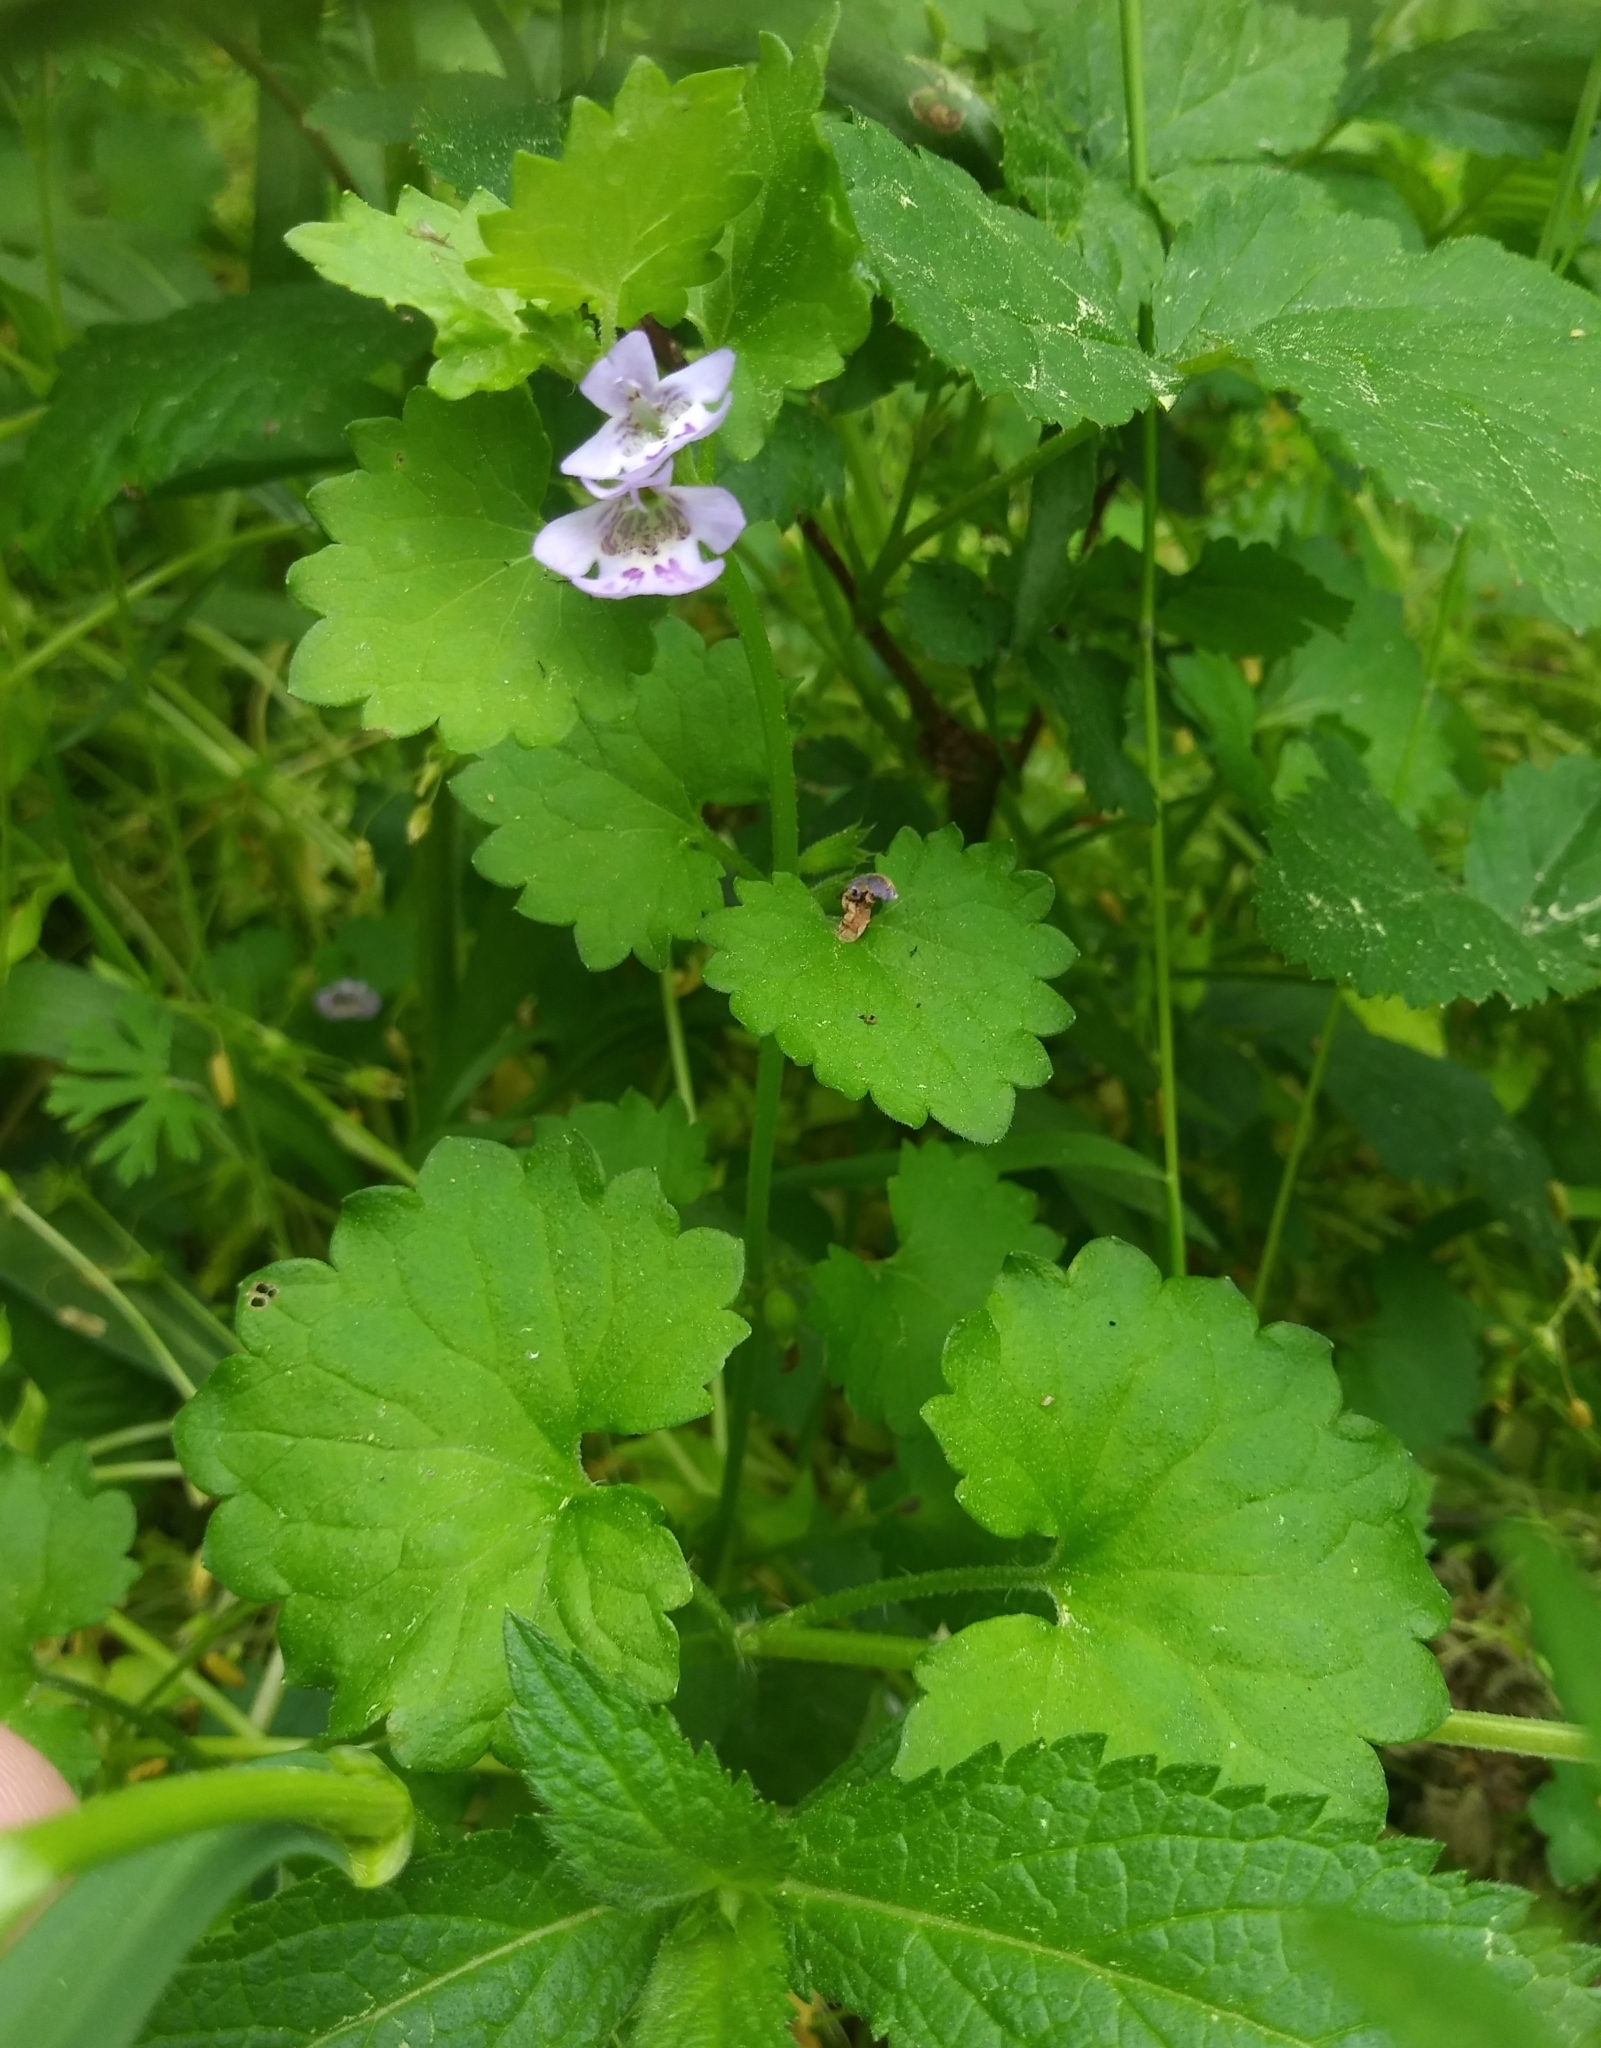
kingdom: Plantae
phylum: Tracheophyta
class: Magnoliopsida
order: Lamiales
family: Lamiaceae
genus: Glechoma
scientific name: Glechoma hederacea
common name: Ground ivy
